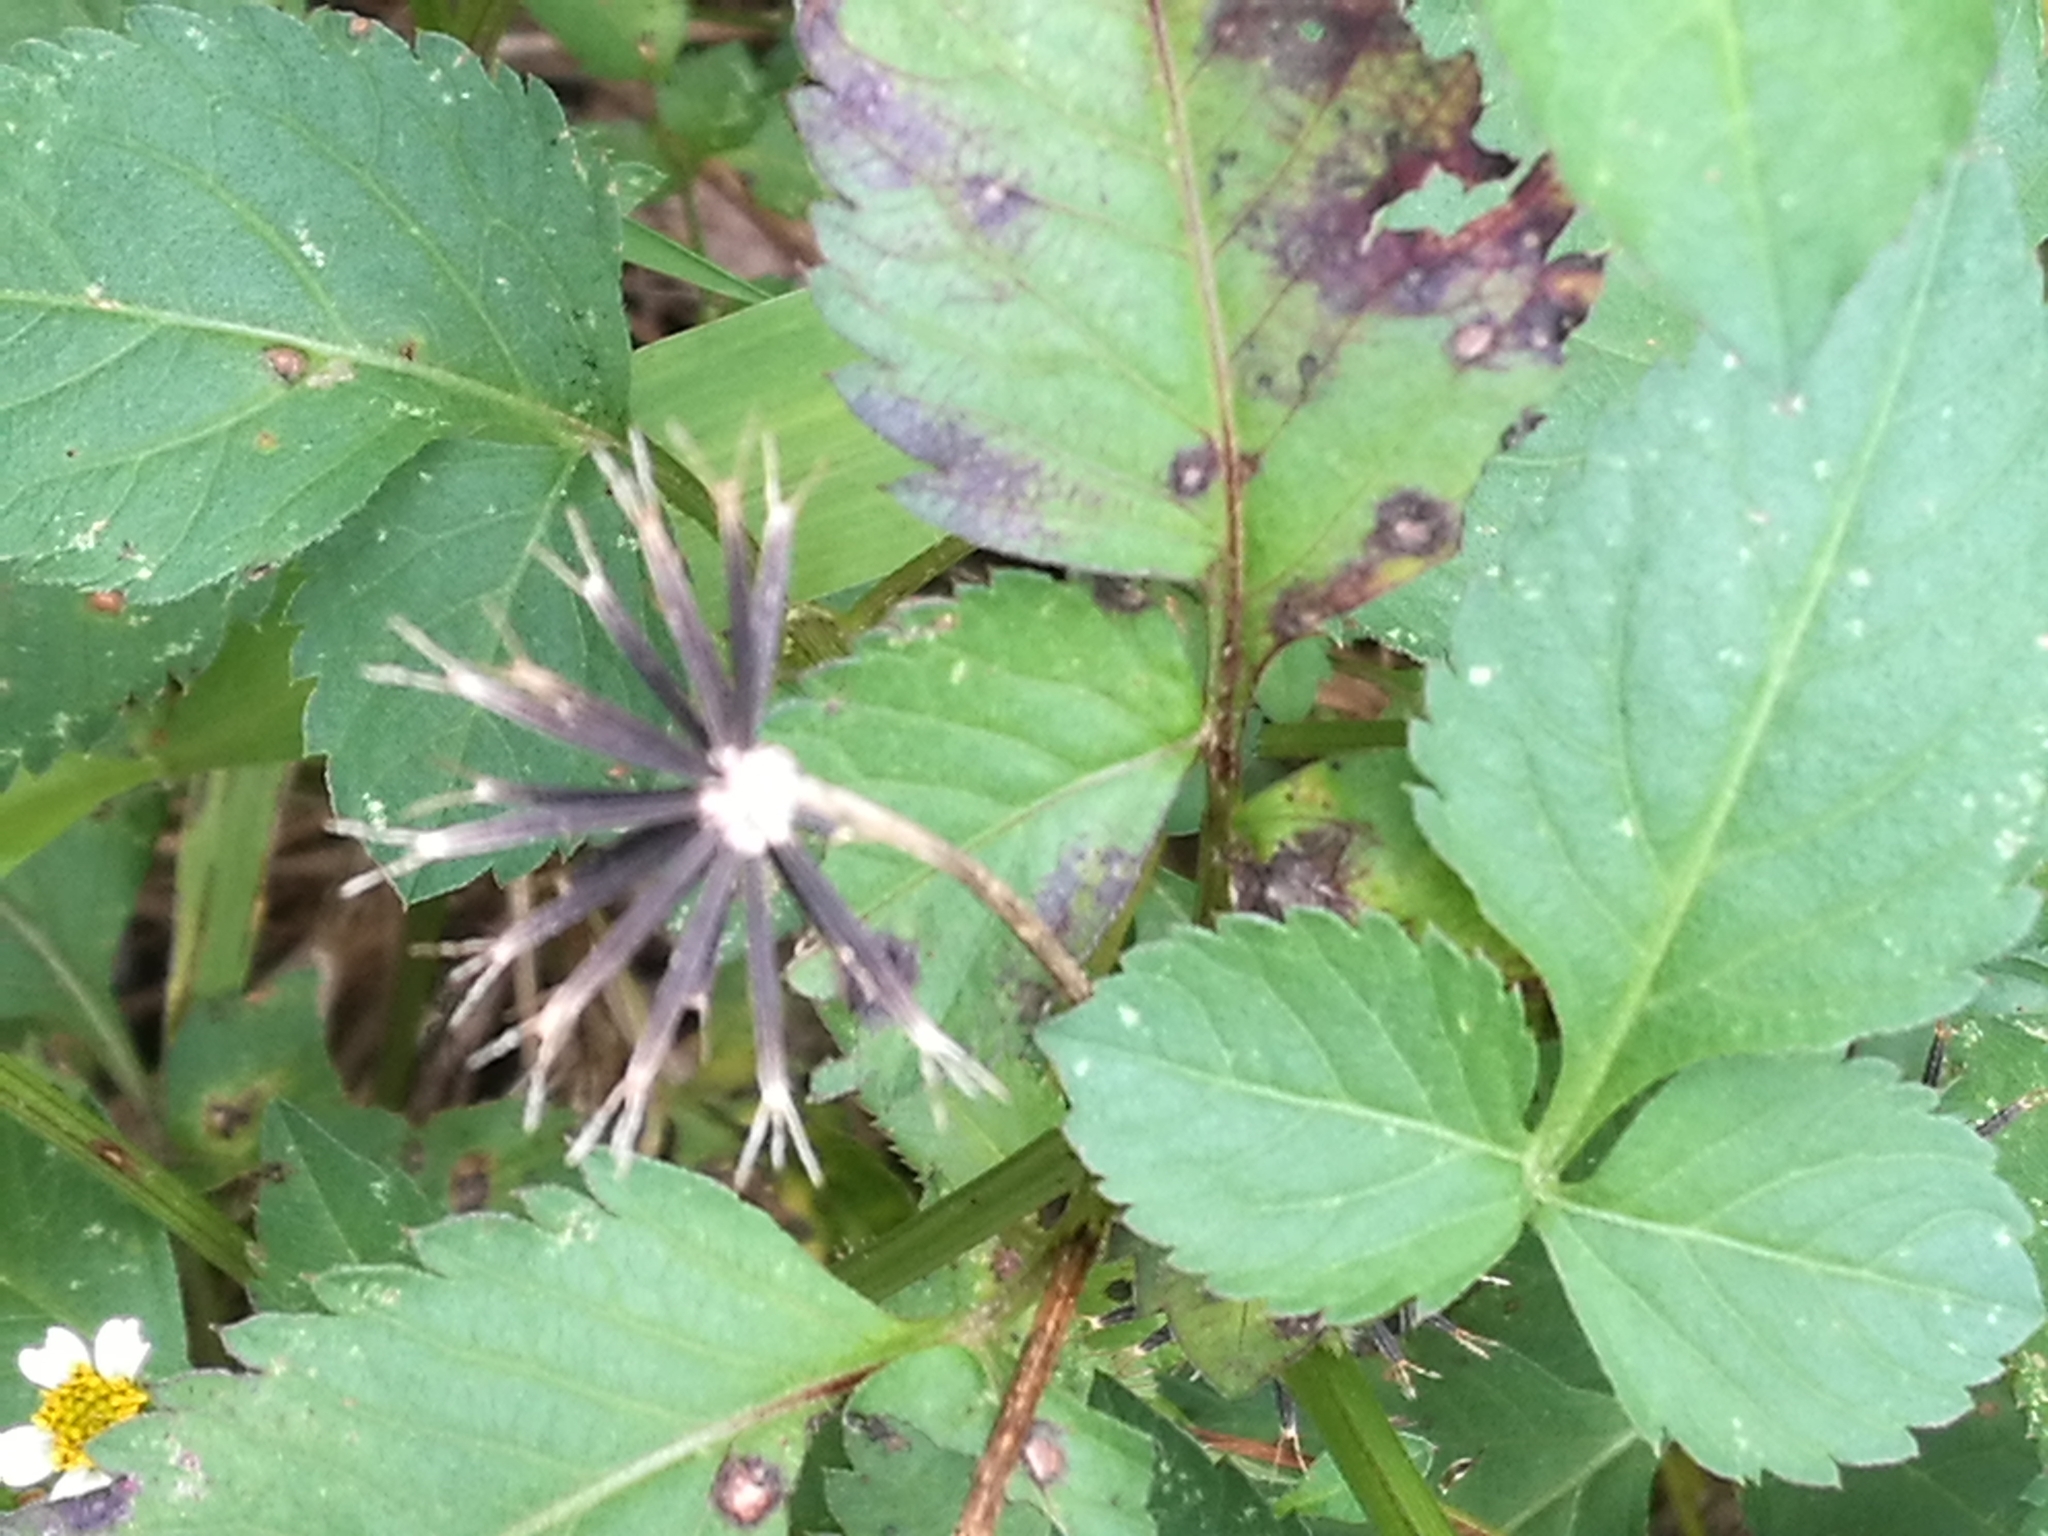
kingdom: Plantae
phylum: Tracheophyta
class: Magnoliopsida
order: Asterales
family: Asteraceae
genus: Bidens
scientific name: Bidens pilosa
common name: Black-jack
